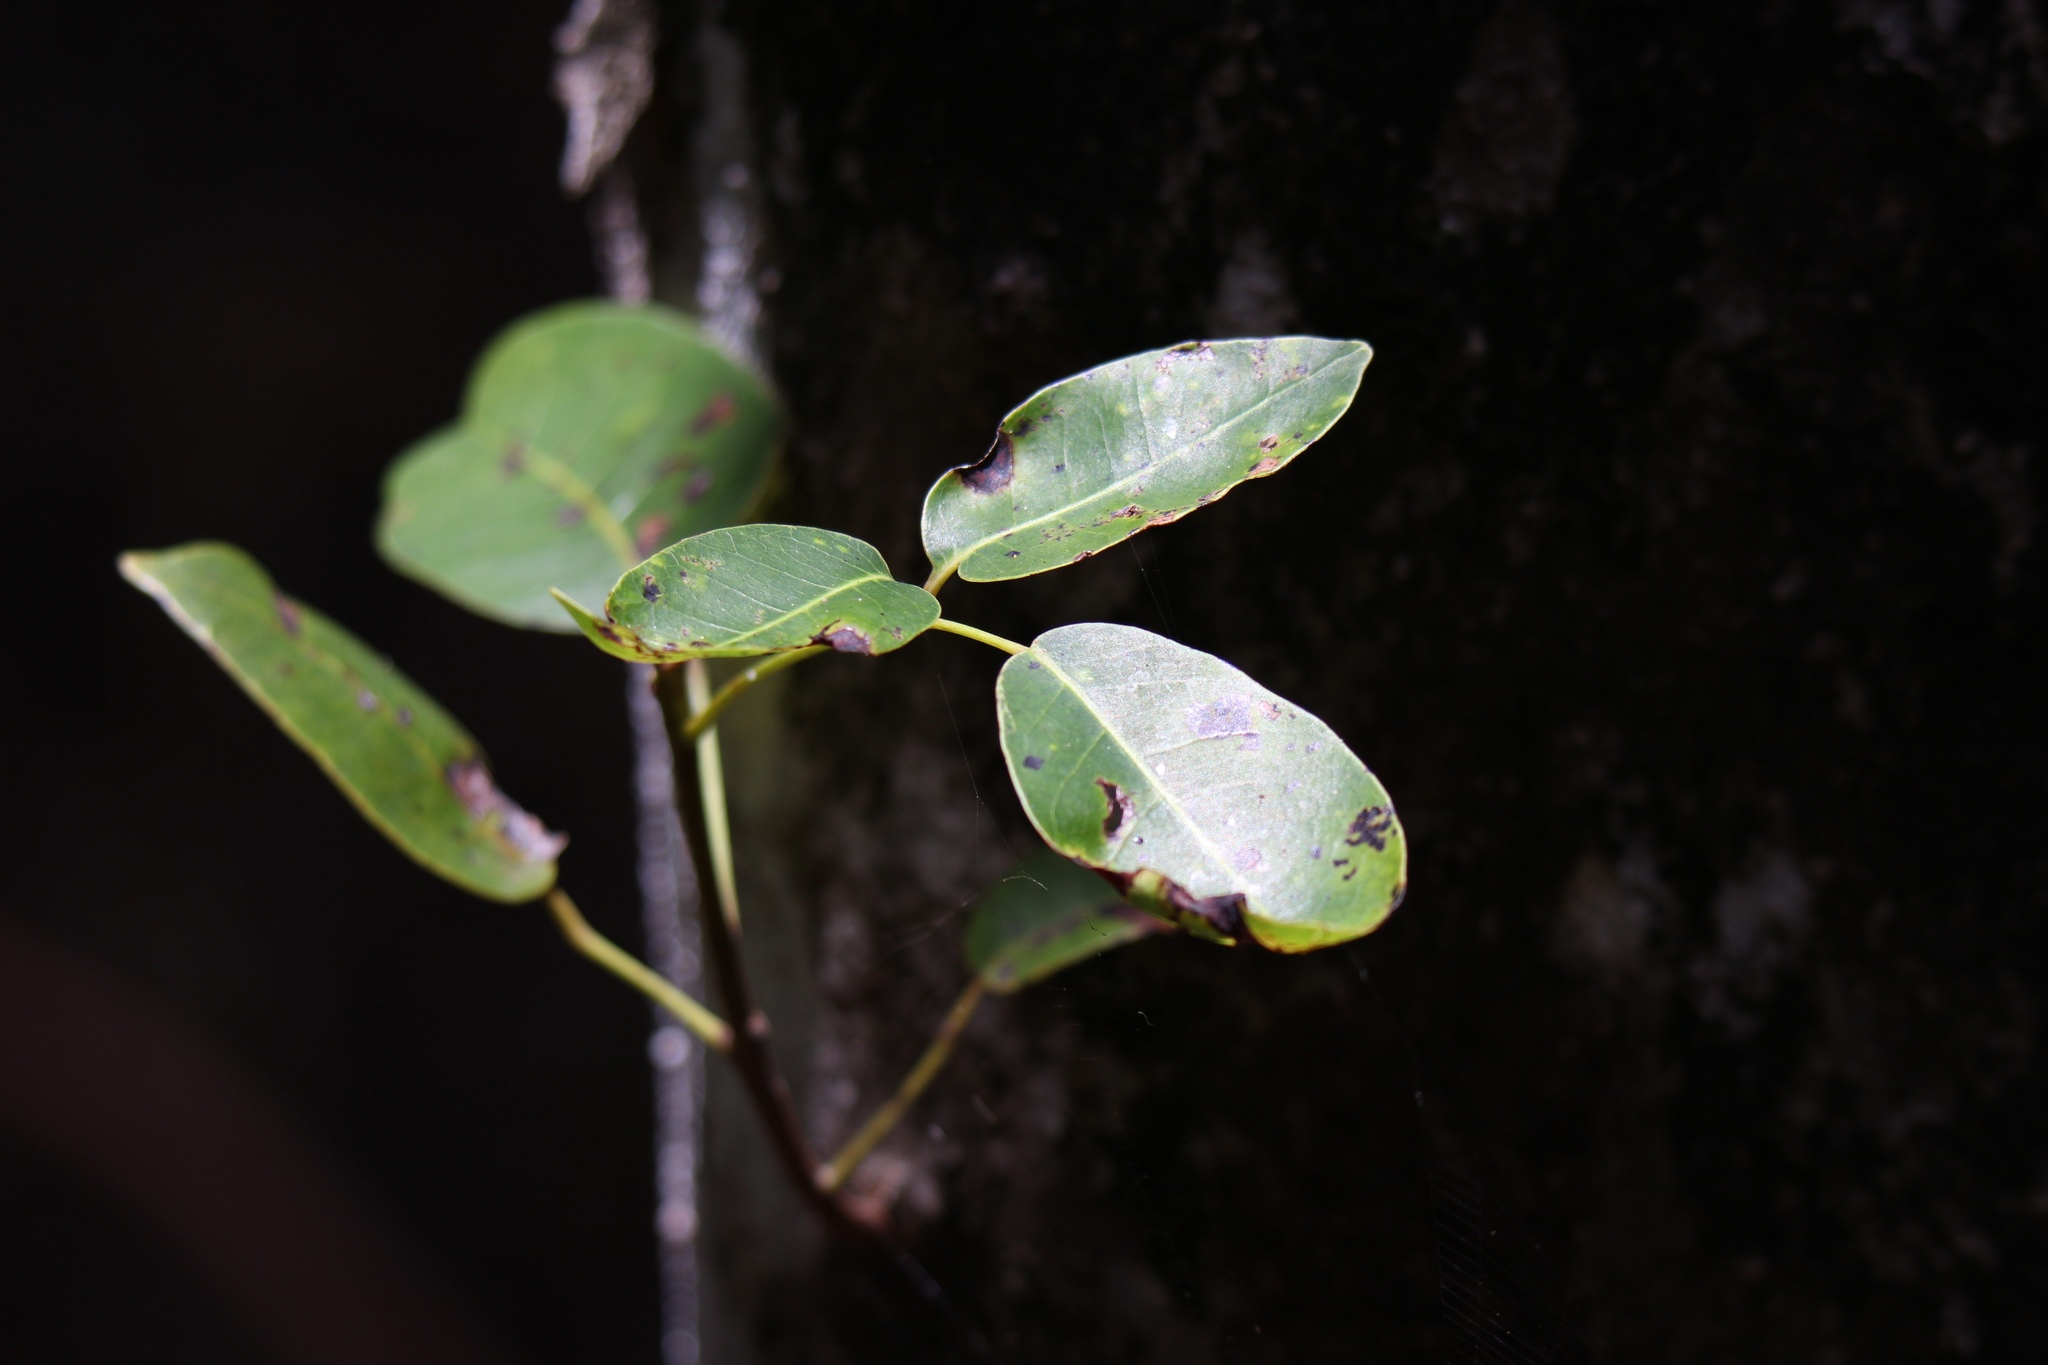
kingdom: Plantae
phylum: Tracheophyta
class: Magnoliopsida
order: Sapindales
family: Anacardiaceae
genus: Metopium
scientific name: Metopium toxiferum
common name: Florida poisontree
